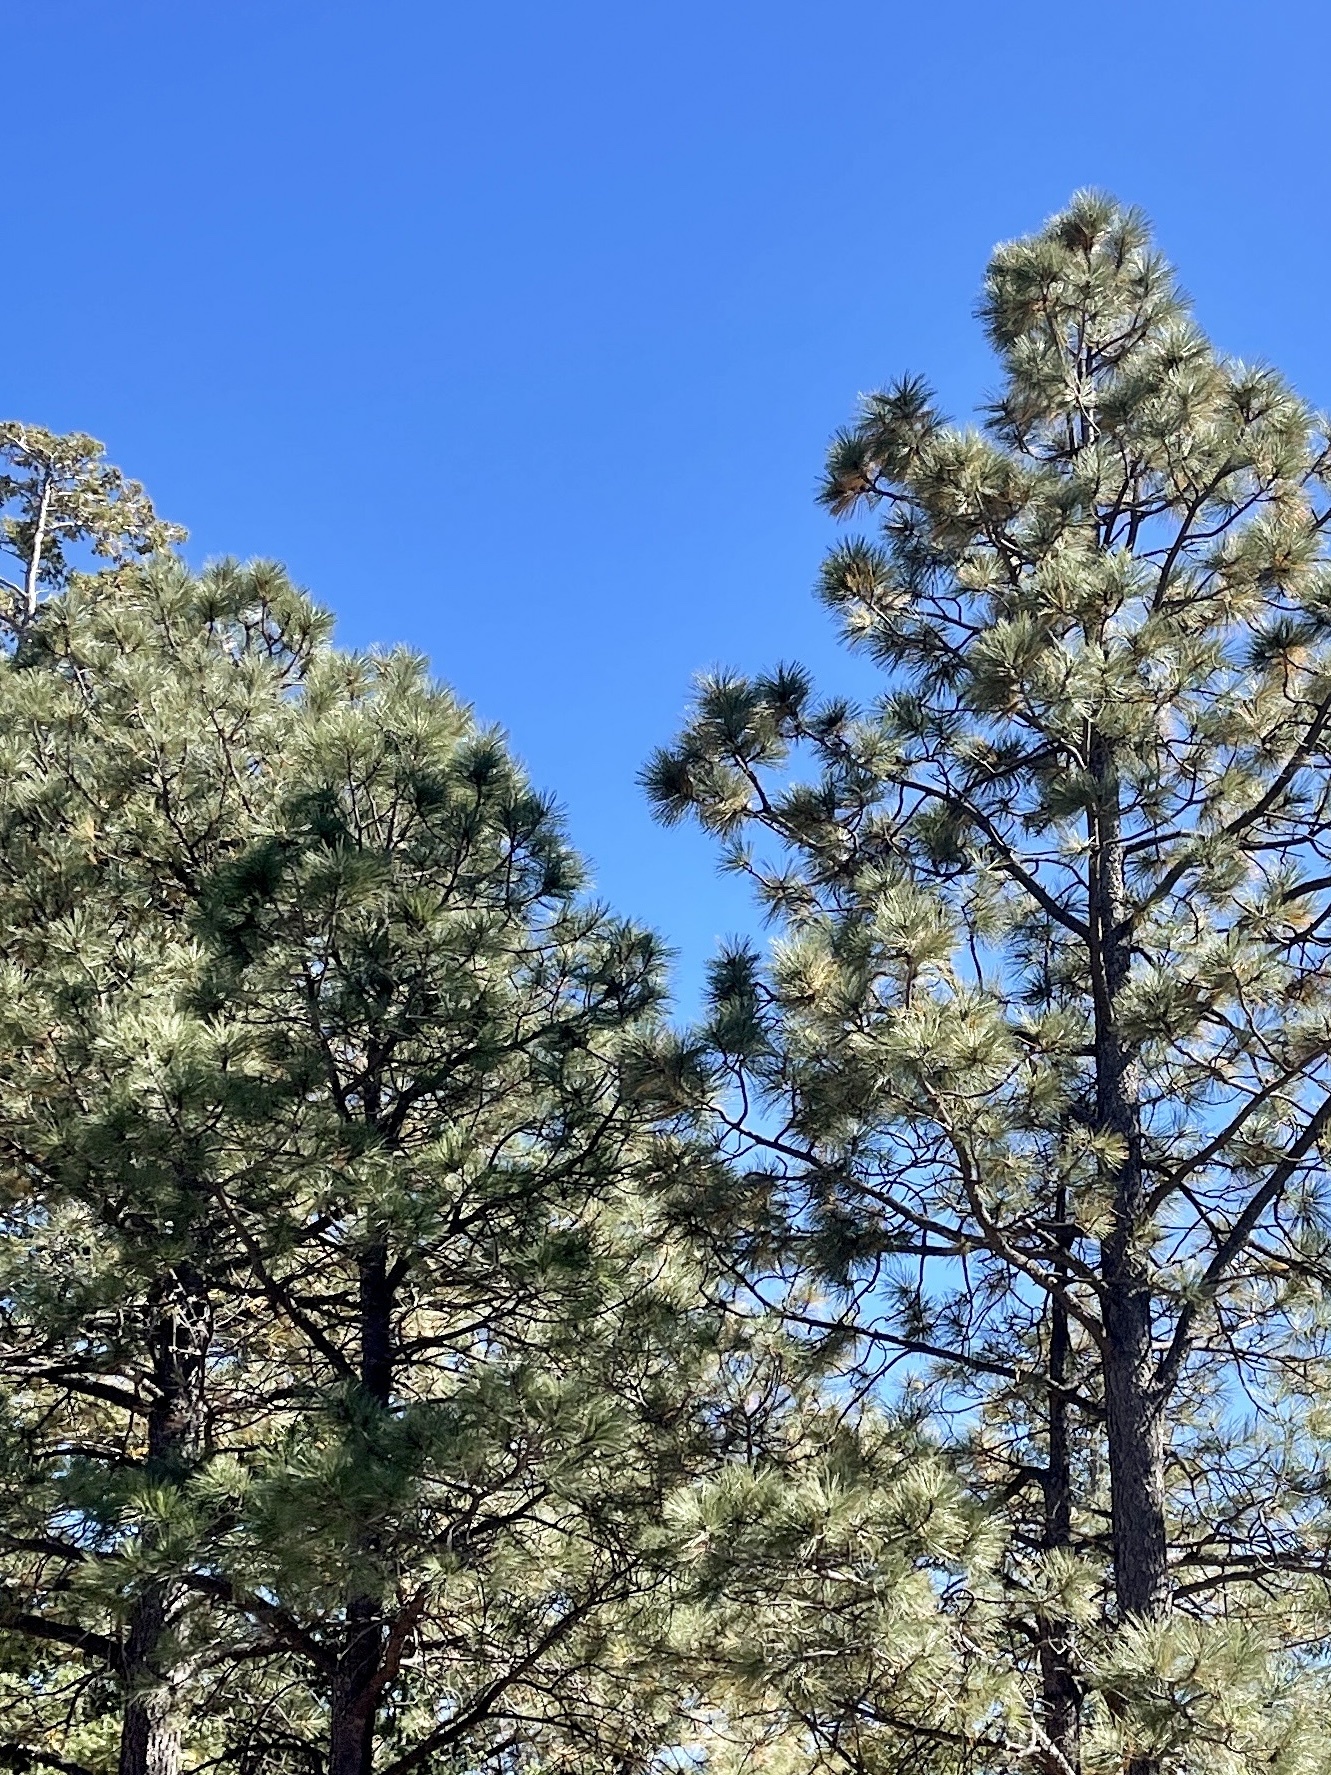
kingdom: Plantae
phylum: Tracheophyta
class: Pinopsida
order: Pinales
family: Pinaceae
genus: Pinus
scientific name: Pinus ponderosa
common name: Western yellow-pine
